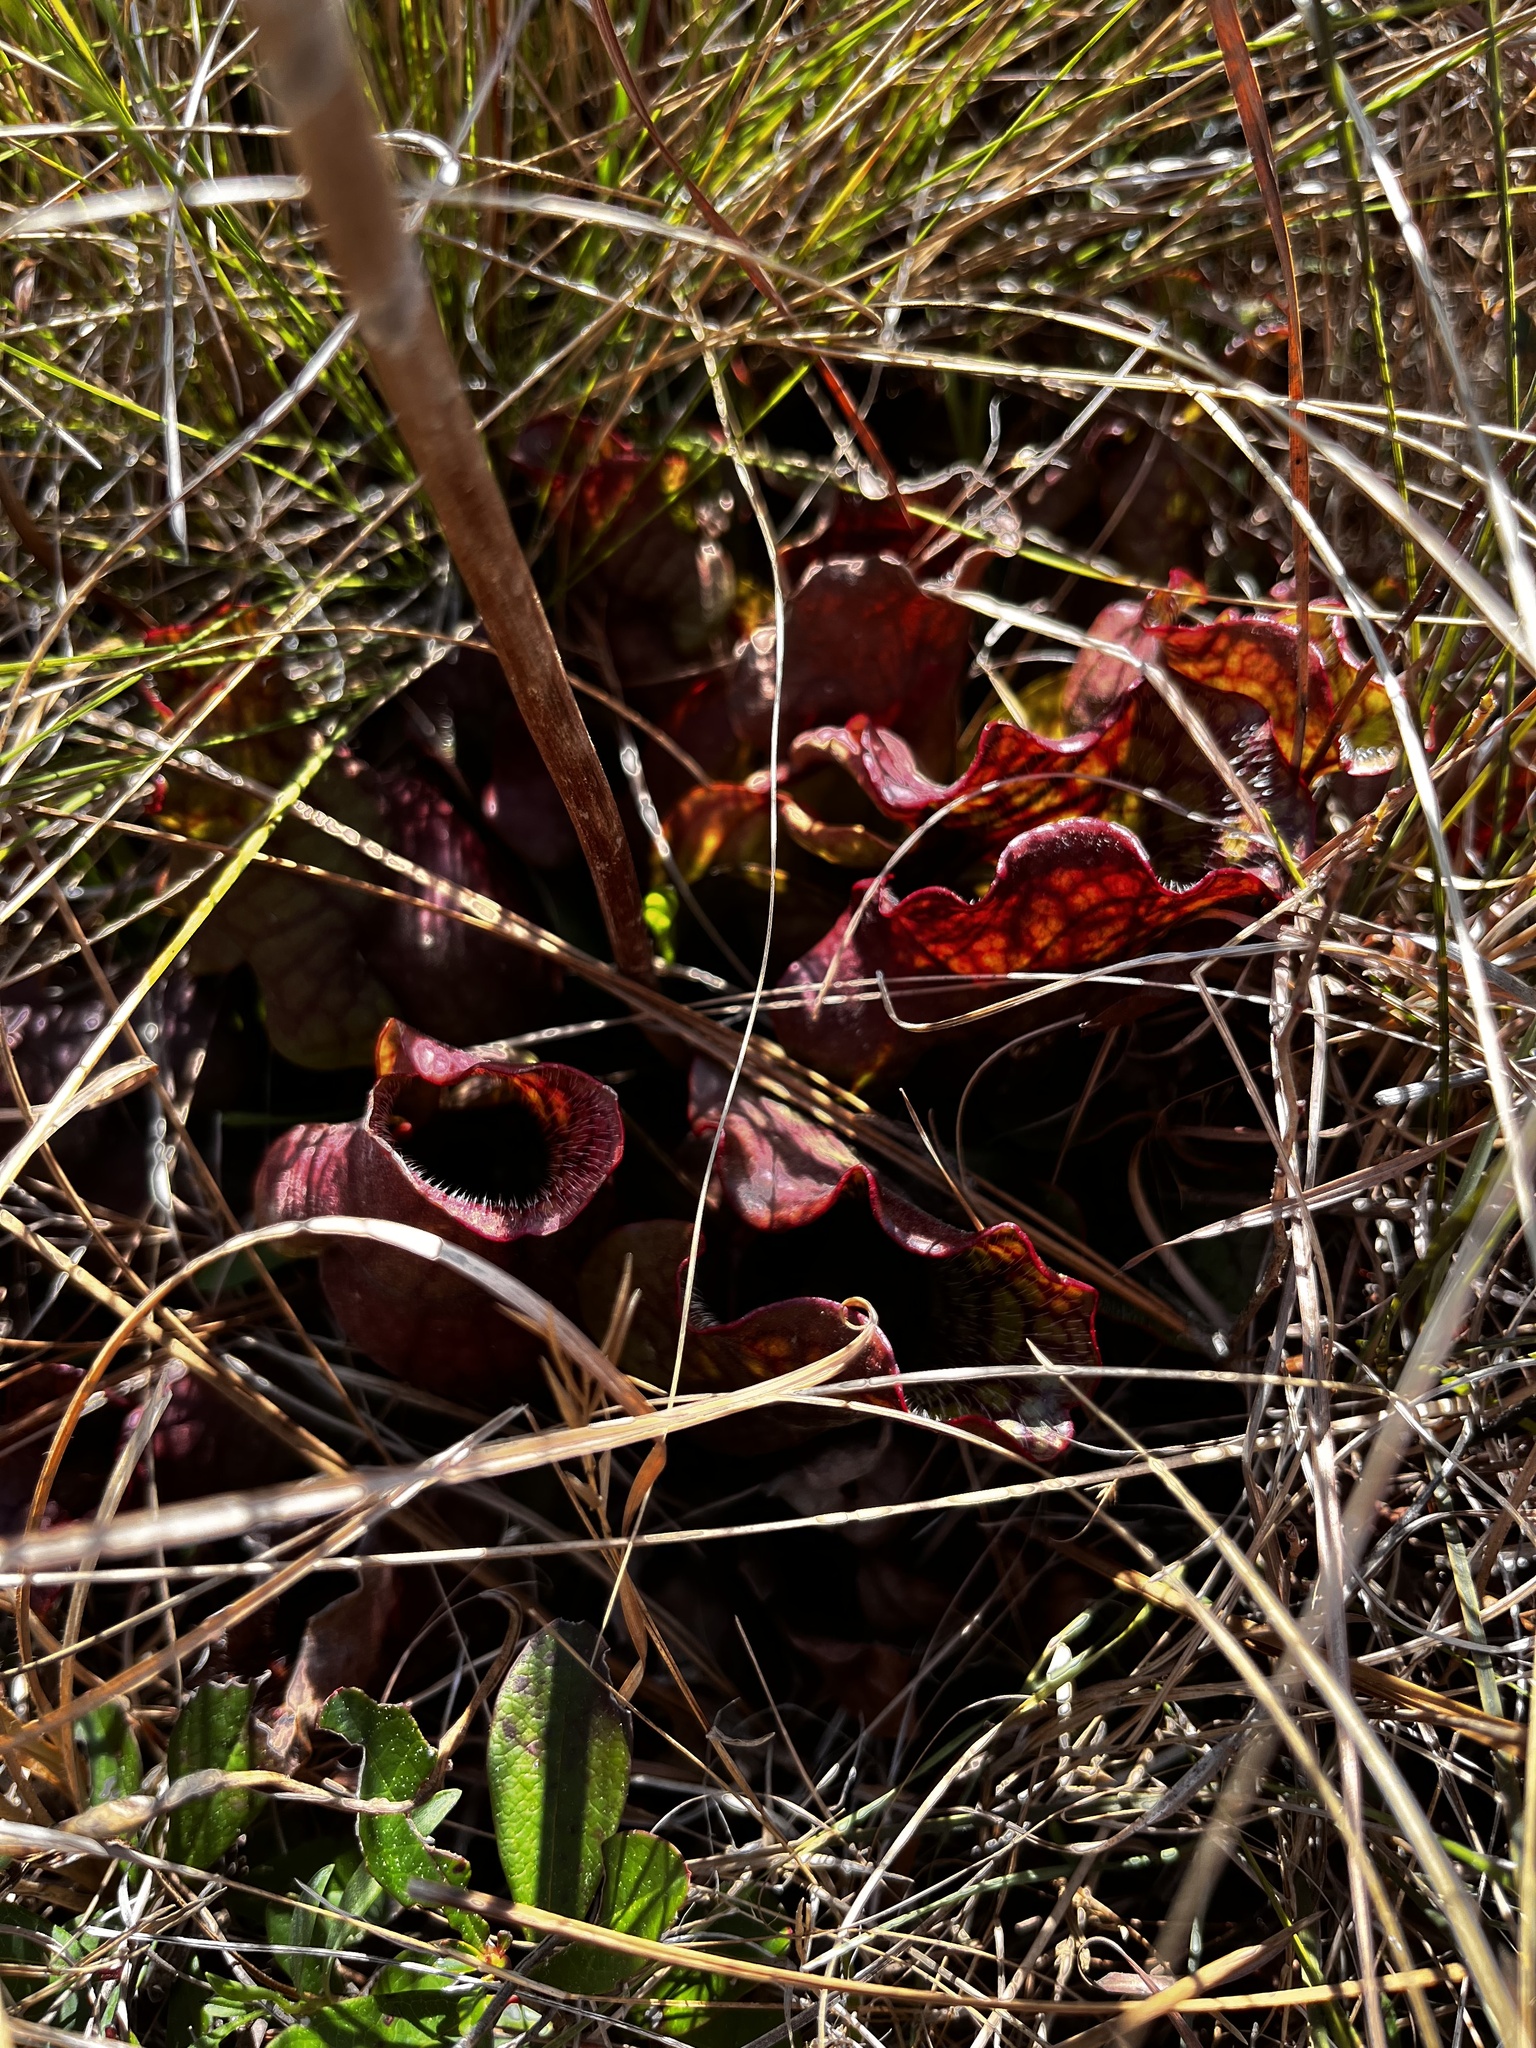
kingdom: Plantae
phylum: Tracheophyta
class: Magnoliopsida
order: Ericales
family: Sarraceniaceae
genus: Sarracenia
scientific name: Sarracenia purpurea
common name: Pitcherplant
